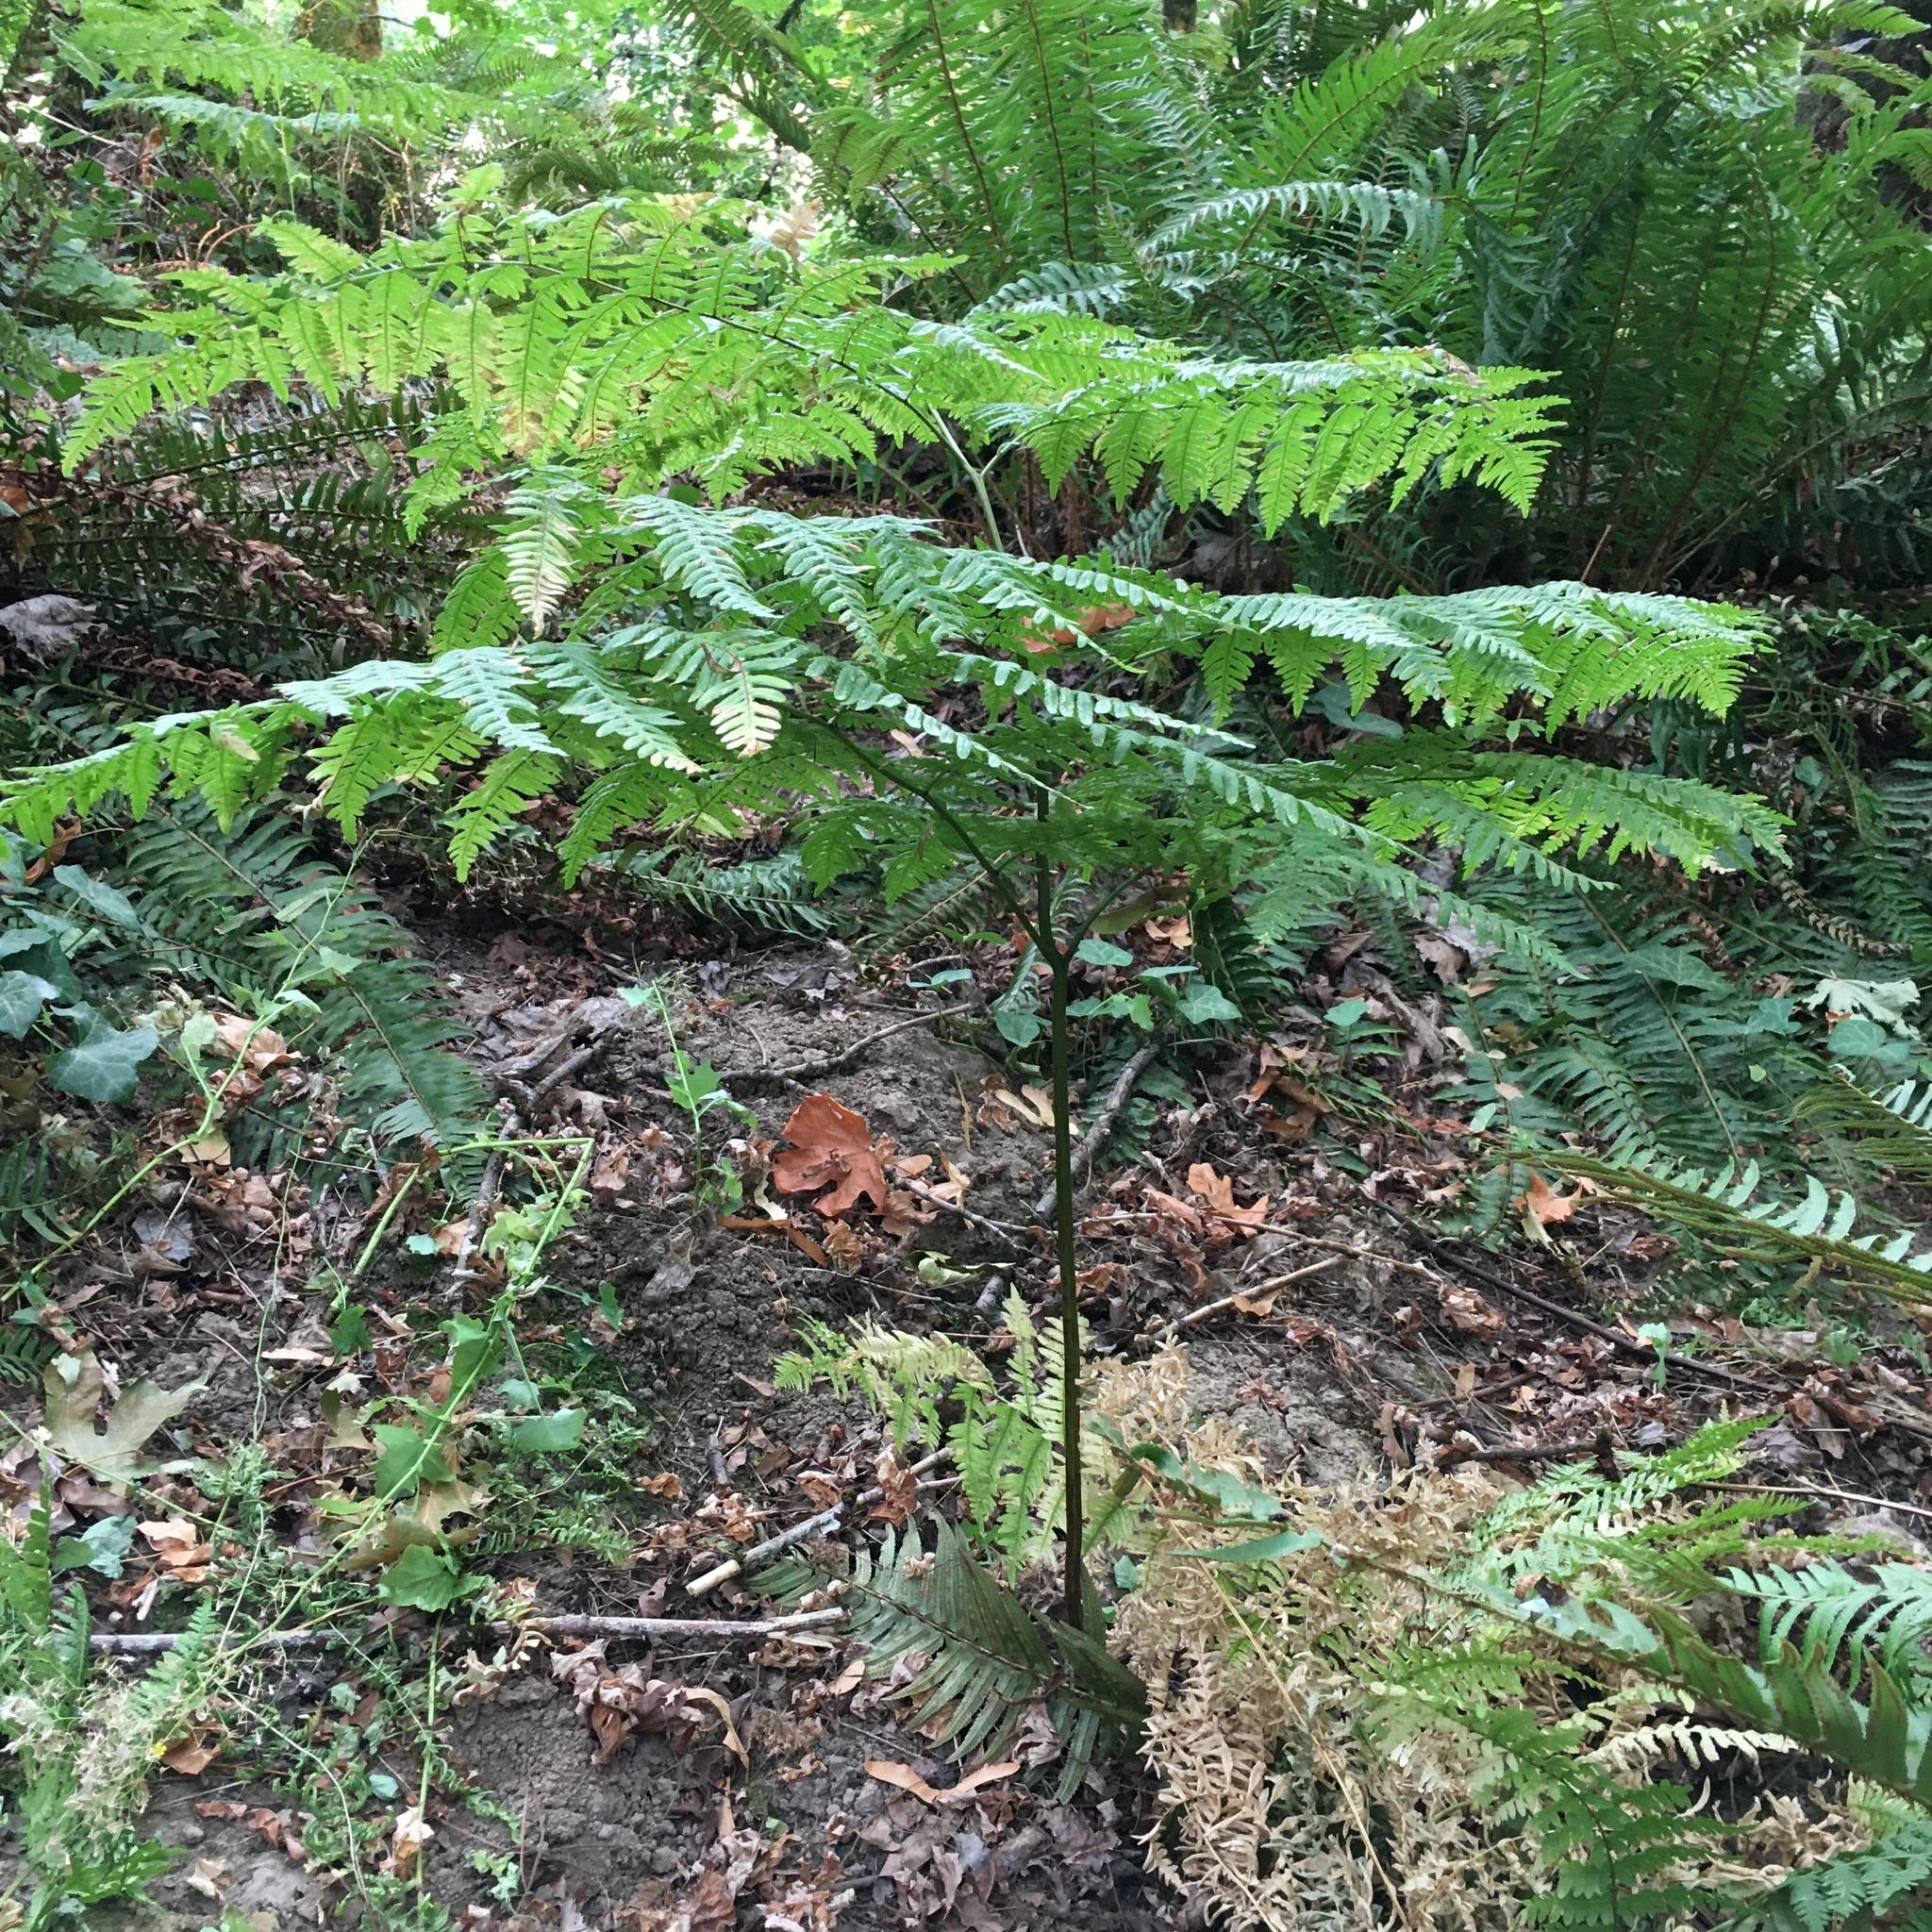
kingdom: Plantae
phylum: Tracheophyta
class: Polypodiopsida
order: Polypodiales
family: Dennstaedtiaceae
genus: Pteridium
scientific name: Pteridium aquilinum
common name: Bracken
